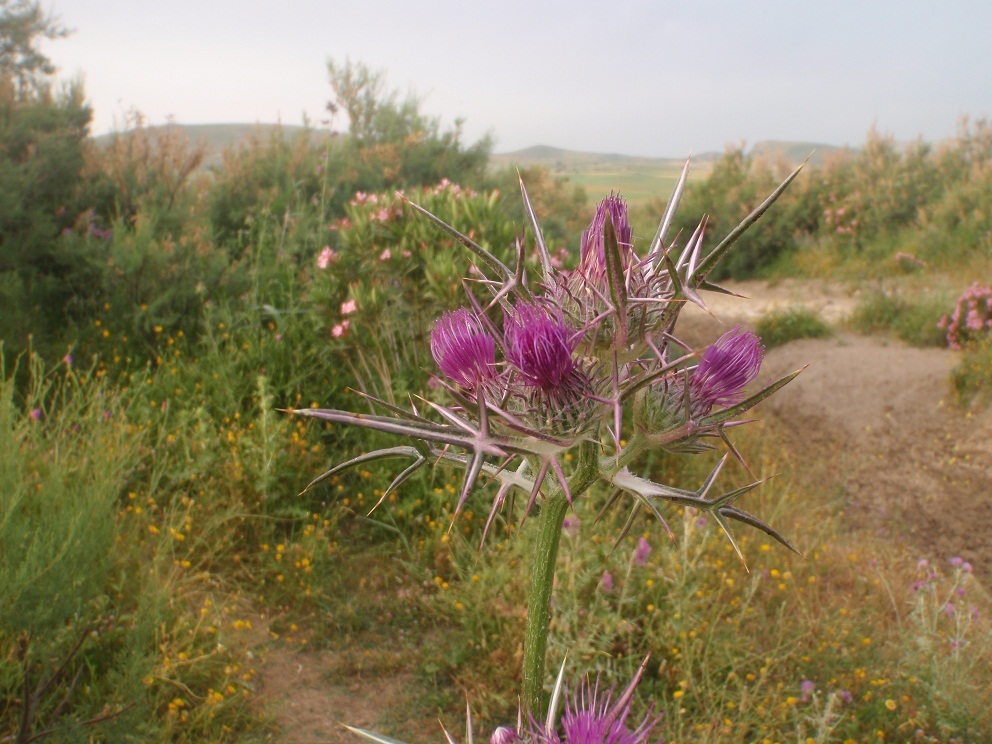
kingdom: Plantae
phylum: Tracheophyta
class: Magnoliopsida
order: Asterales
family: Asteraceae
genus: Notobasis
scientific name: Notobasis syriaca
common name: Syrian thistle
